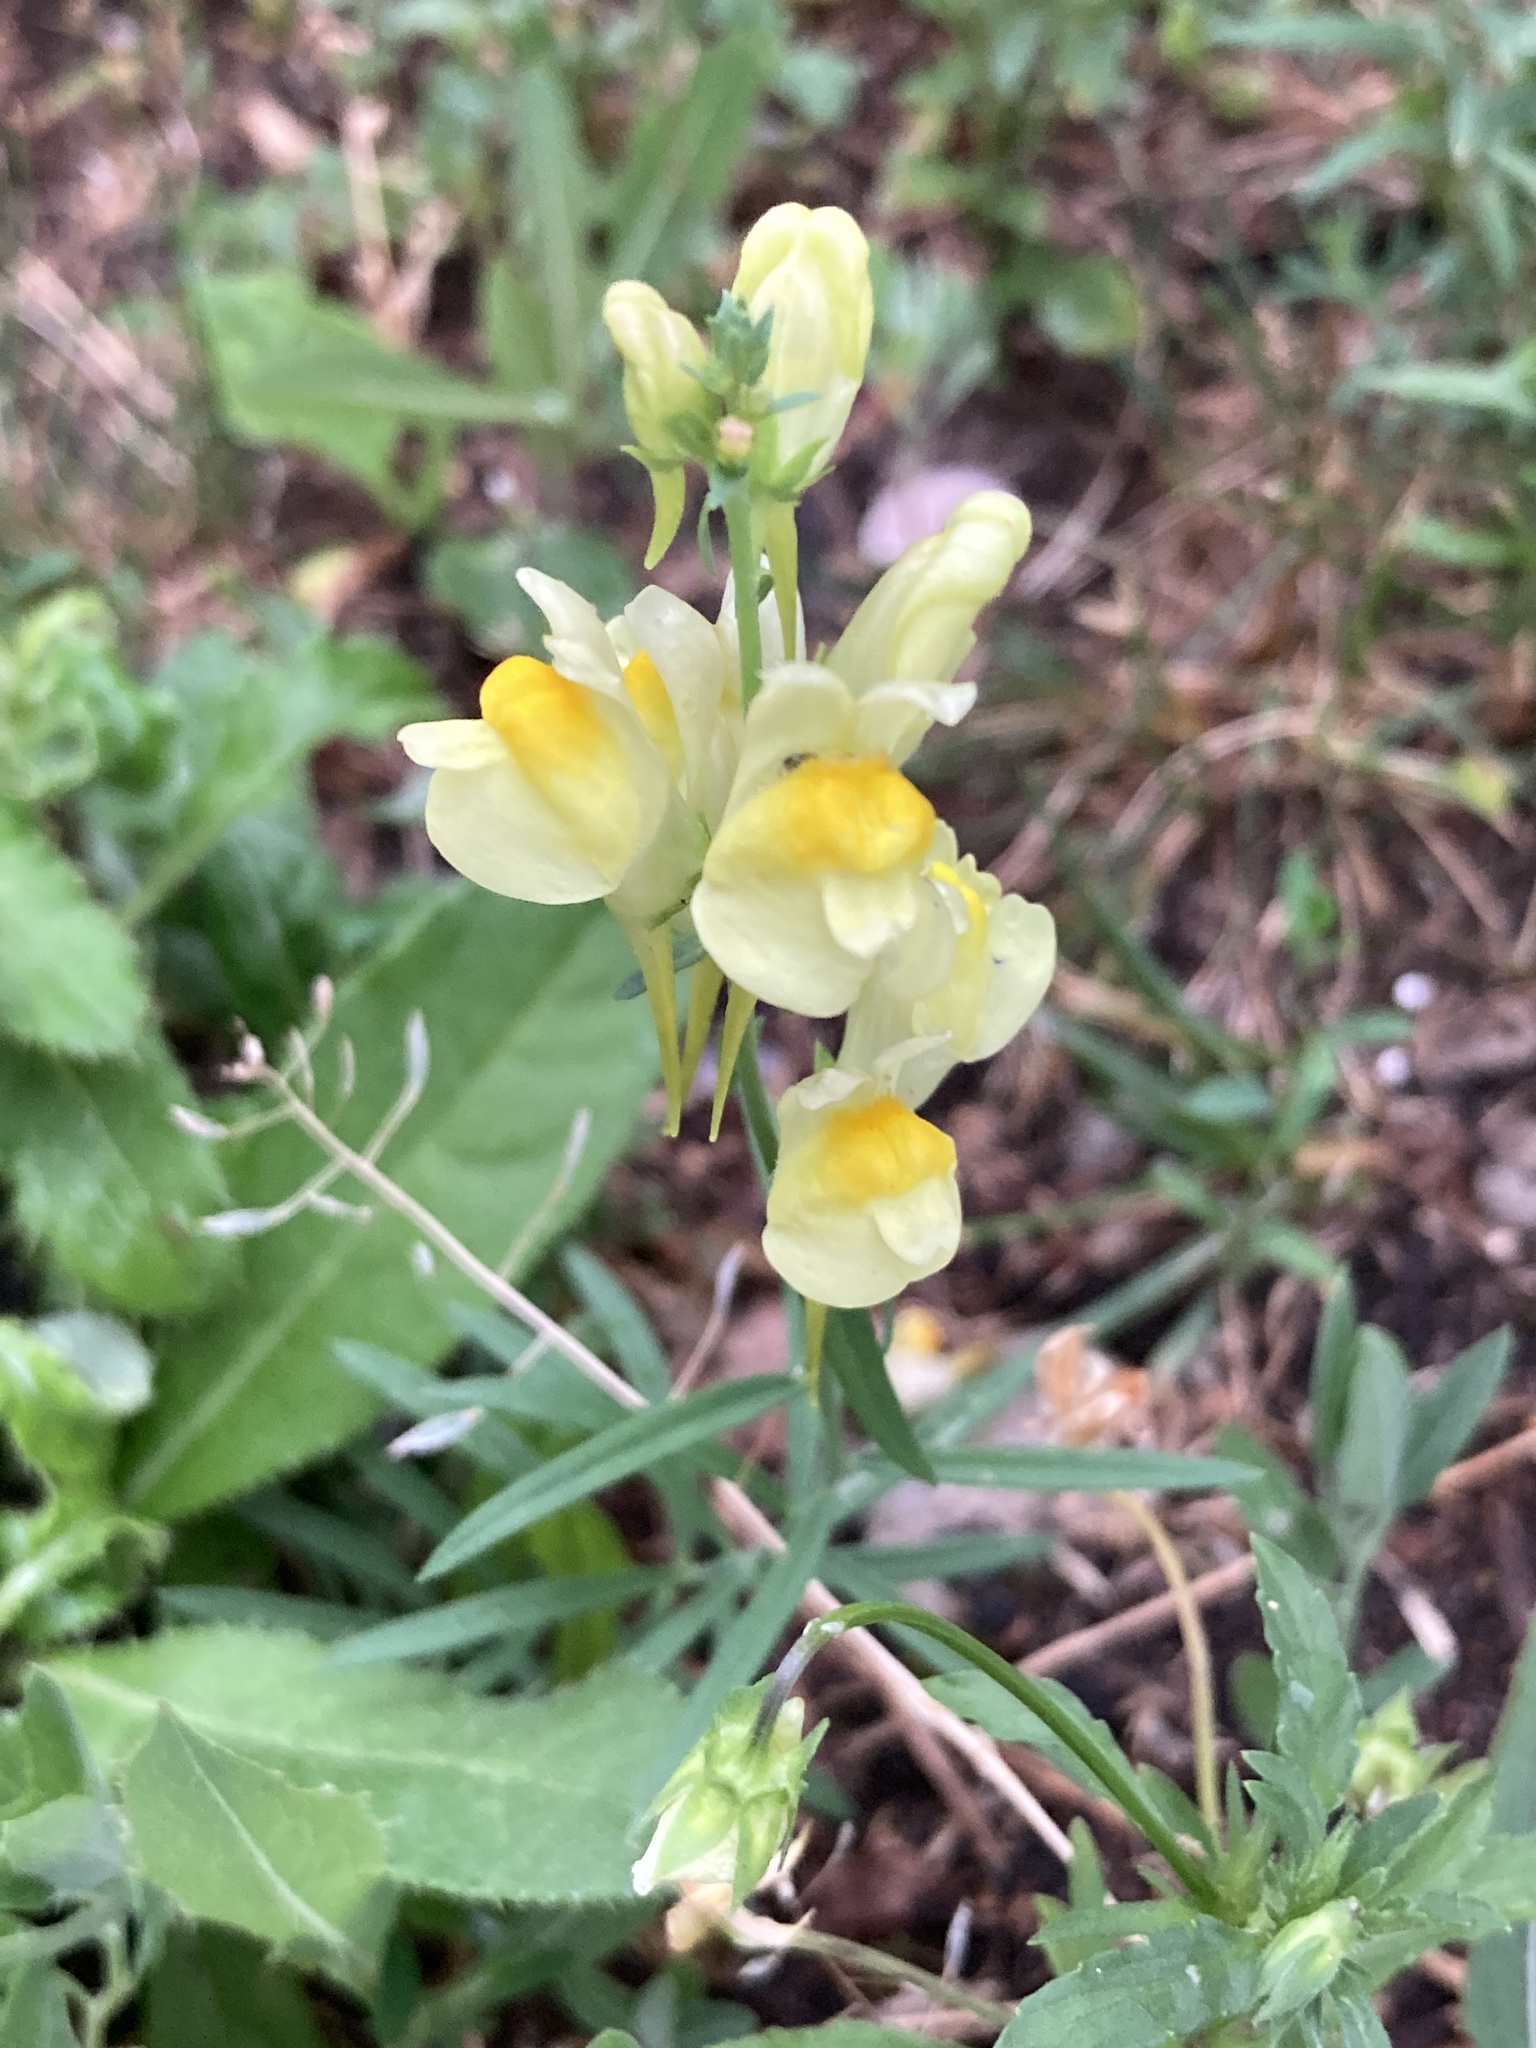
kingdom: Plantae
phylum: Tracheophyta
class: Magnoliopsida
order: Lamiales
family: Plantaginaceae
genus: Linaria
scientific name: Linaria vulgaris
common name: Butter and eggs
